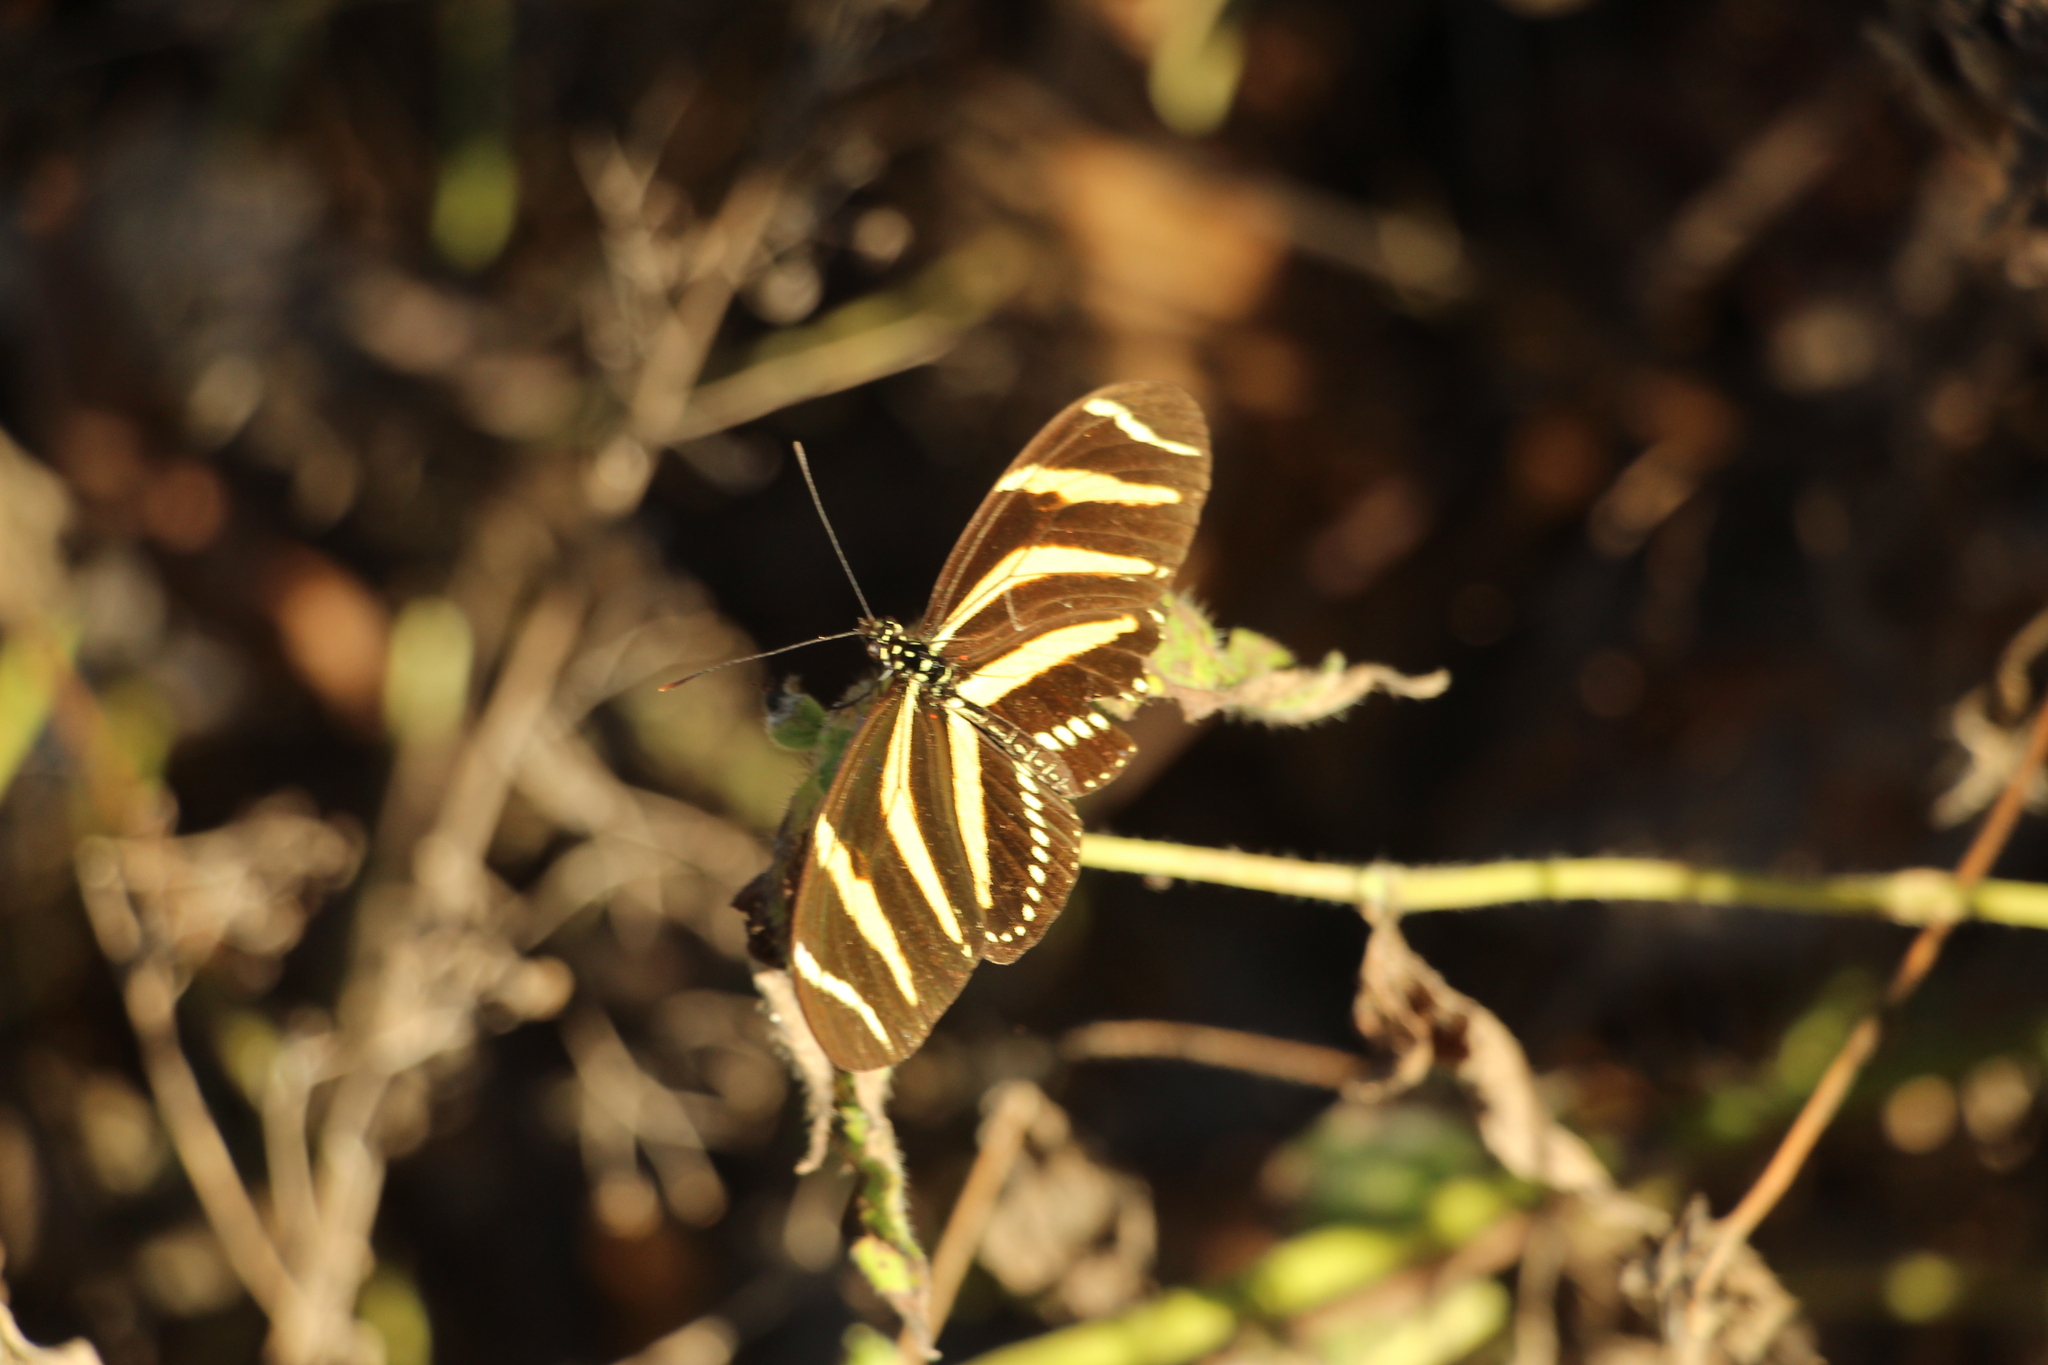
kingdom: Animalia
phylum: Arthropoda
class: Insecta
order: Lepidoptera
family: Nymphalidae
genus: Heliconius
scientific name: Heliconius charithonia
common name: Zebra long wing
